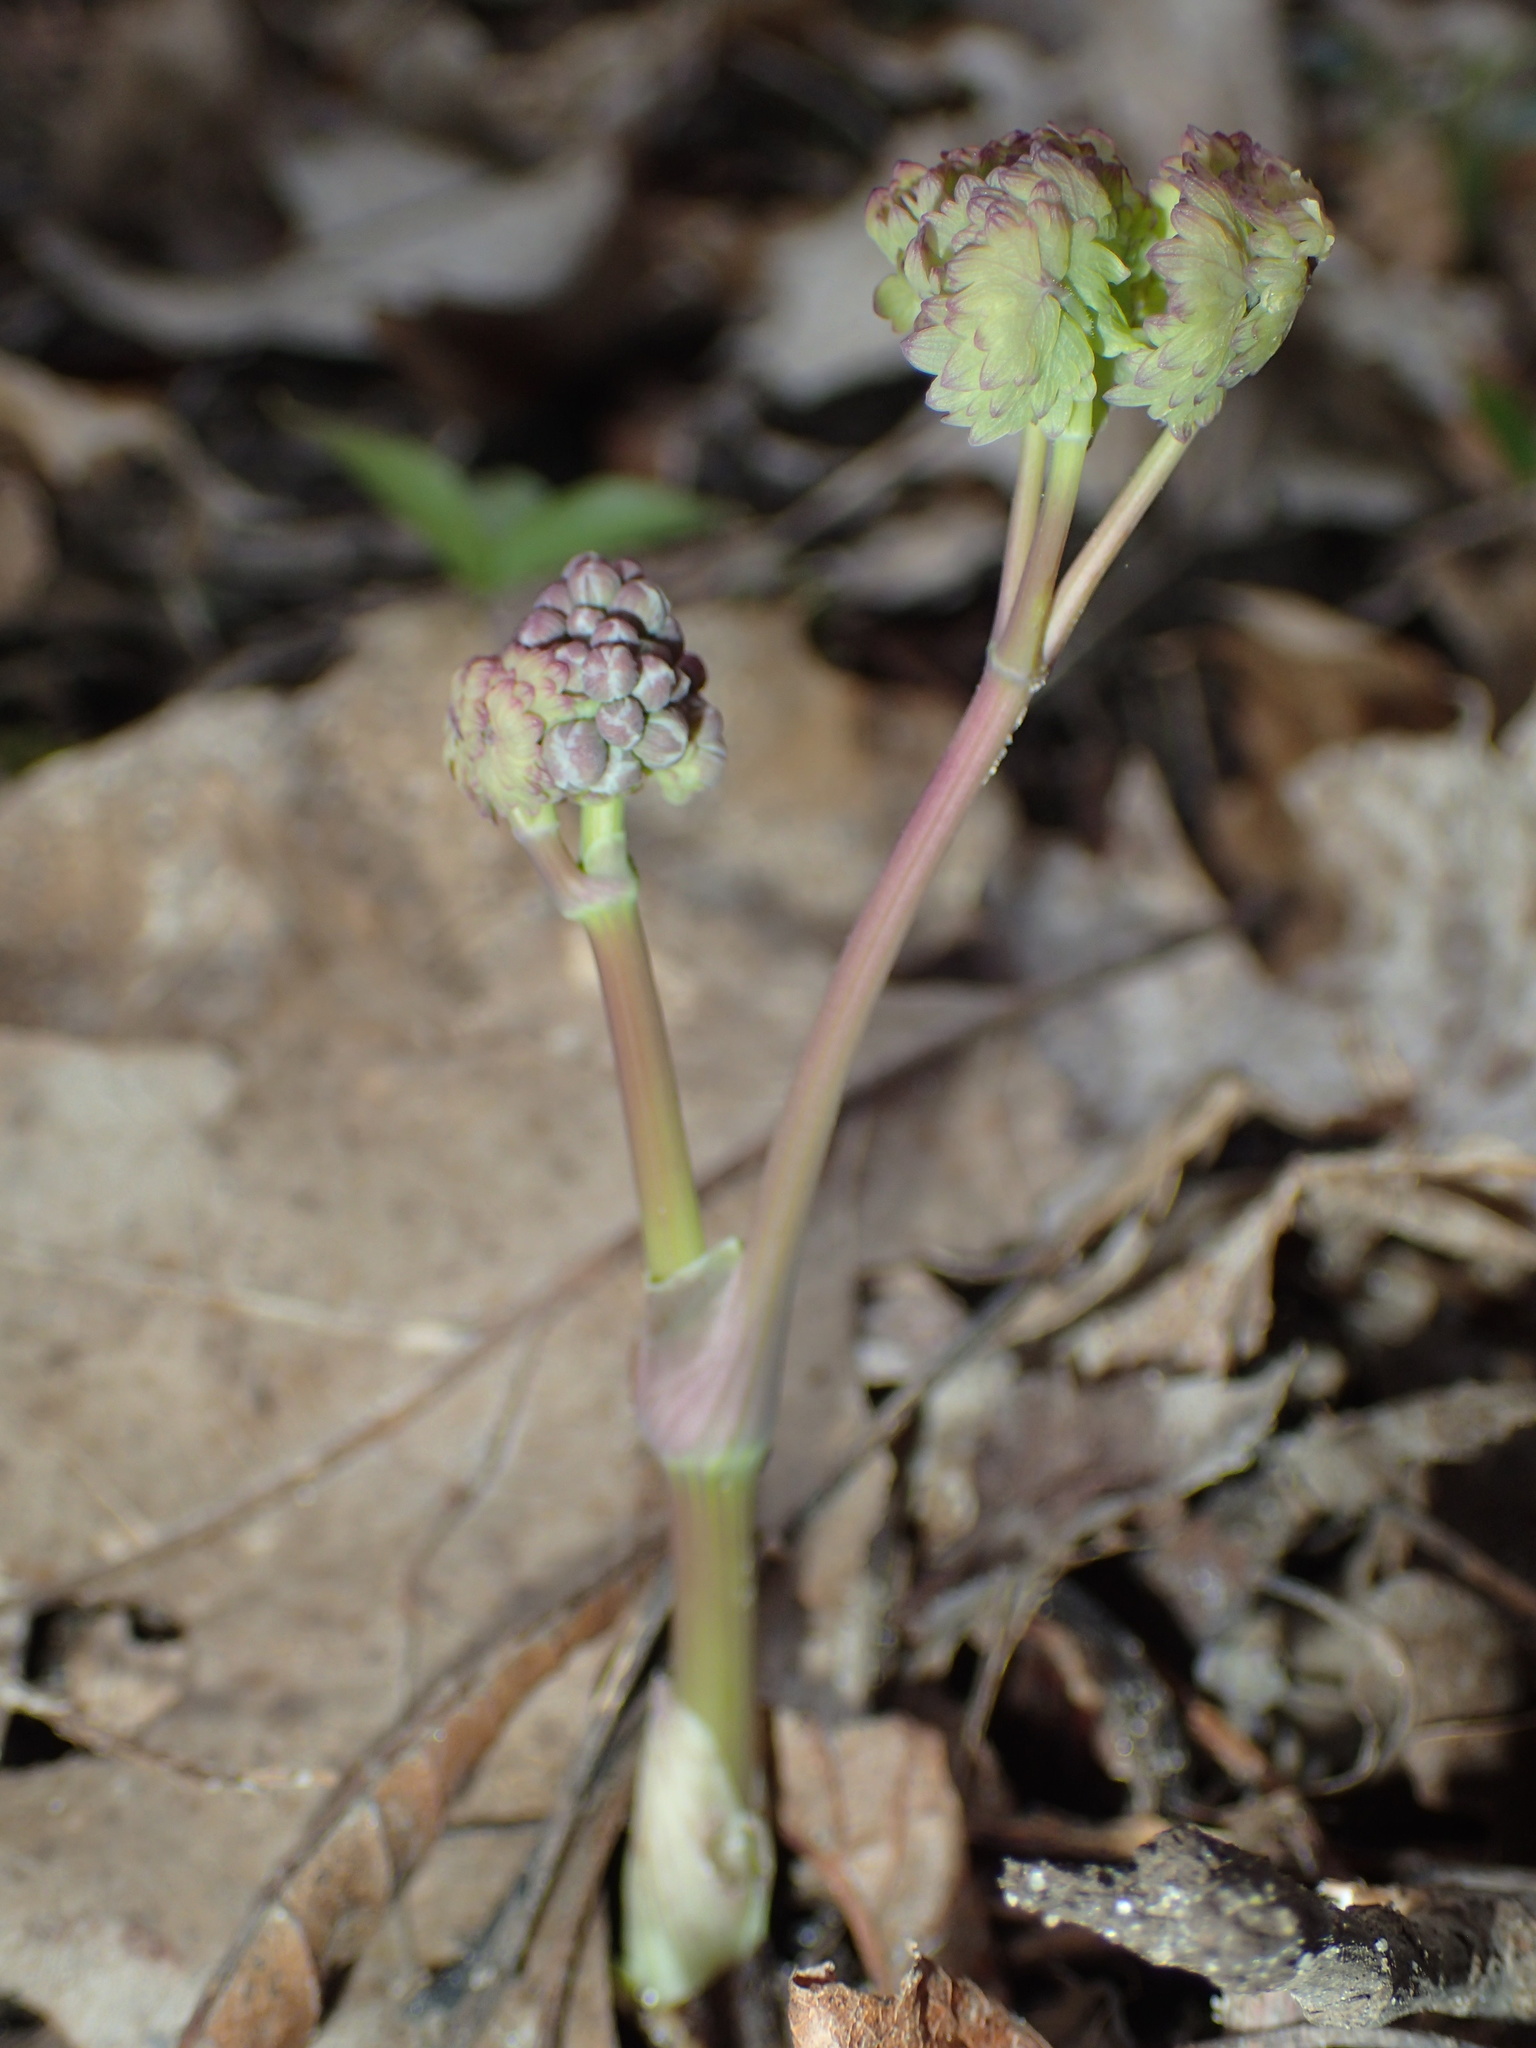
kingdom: Plantae
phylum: Tracheophyta
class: Magnoliopsida
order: Ranunculales
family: Ranunculaceae
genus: Thalictrum
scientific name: Thalictrum dioicum
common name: Early meadow-rue
